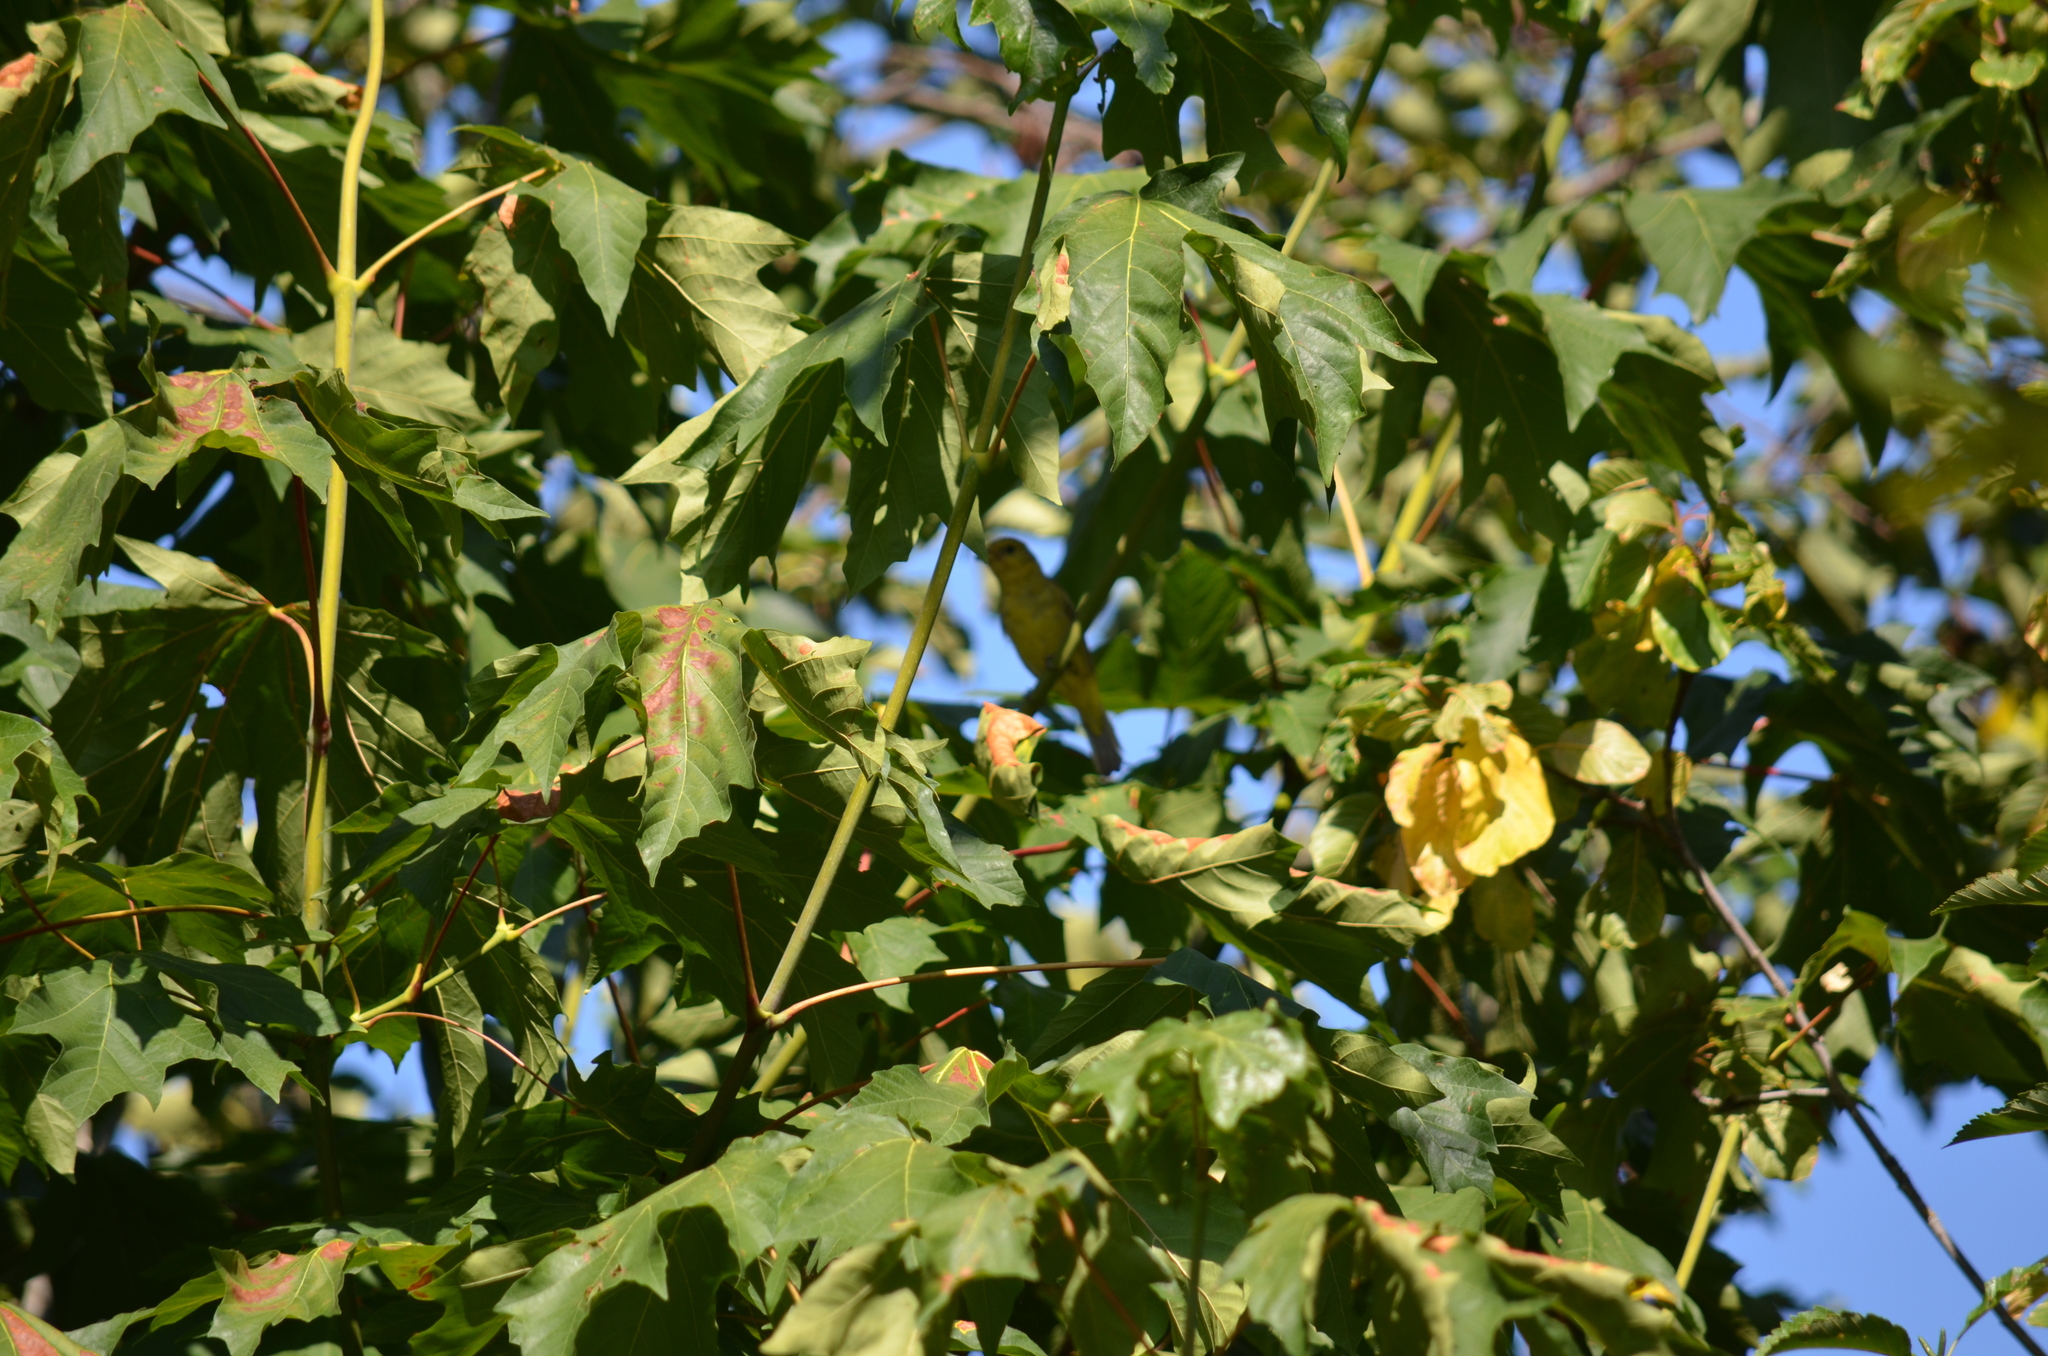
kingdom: Animalia
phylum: Chordata
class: Aves
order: Passeriformes
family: Cardinalidae
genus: Piranga
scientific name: Piranga ludoviciana
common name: Western tanager
